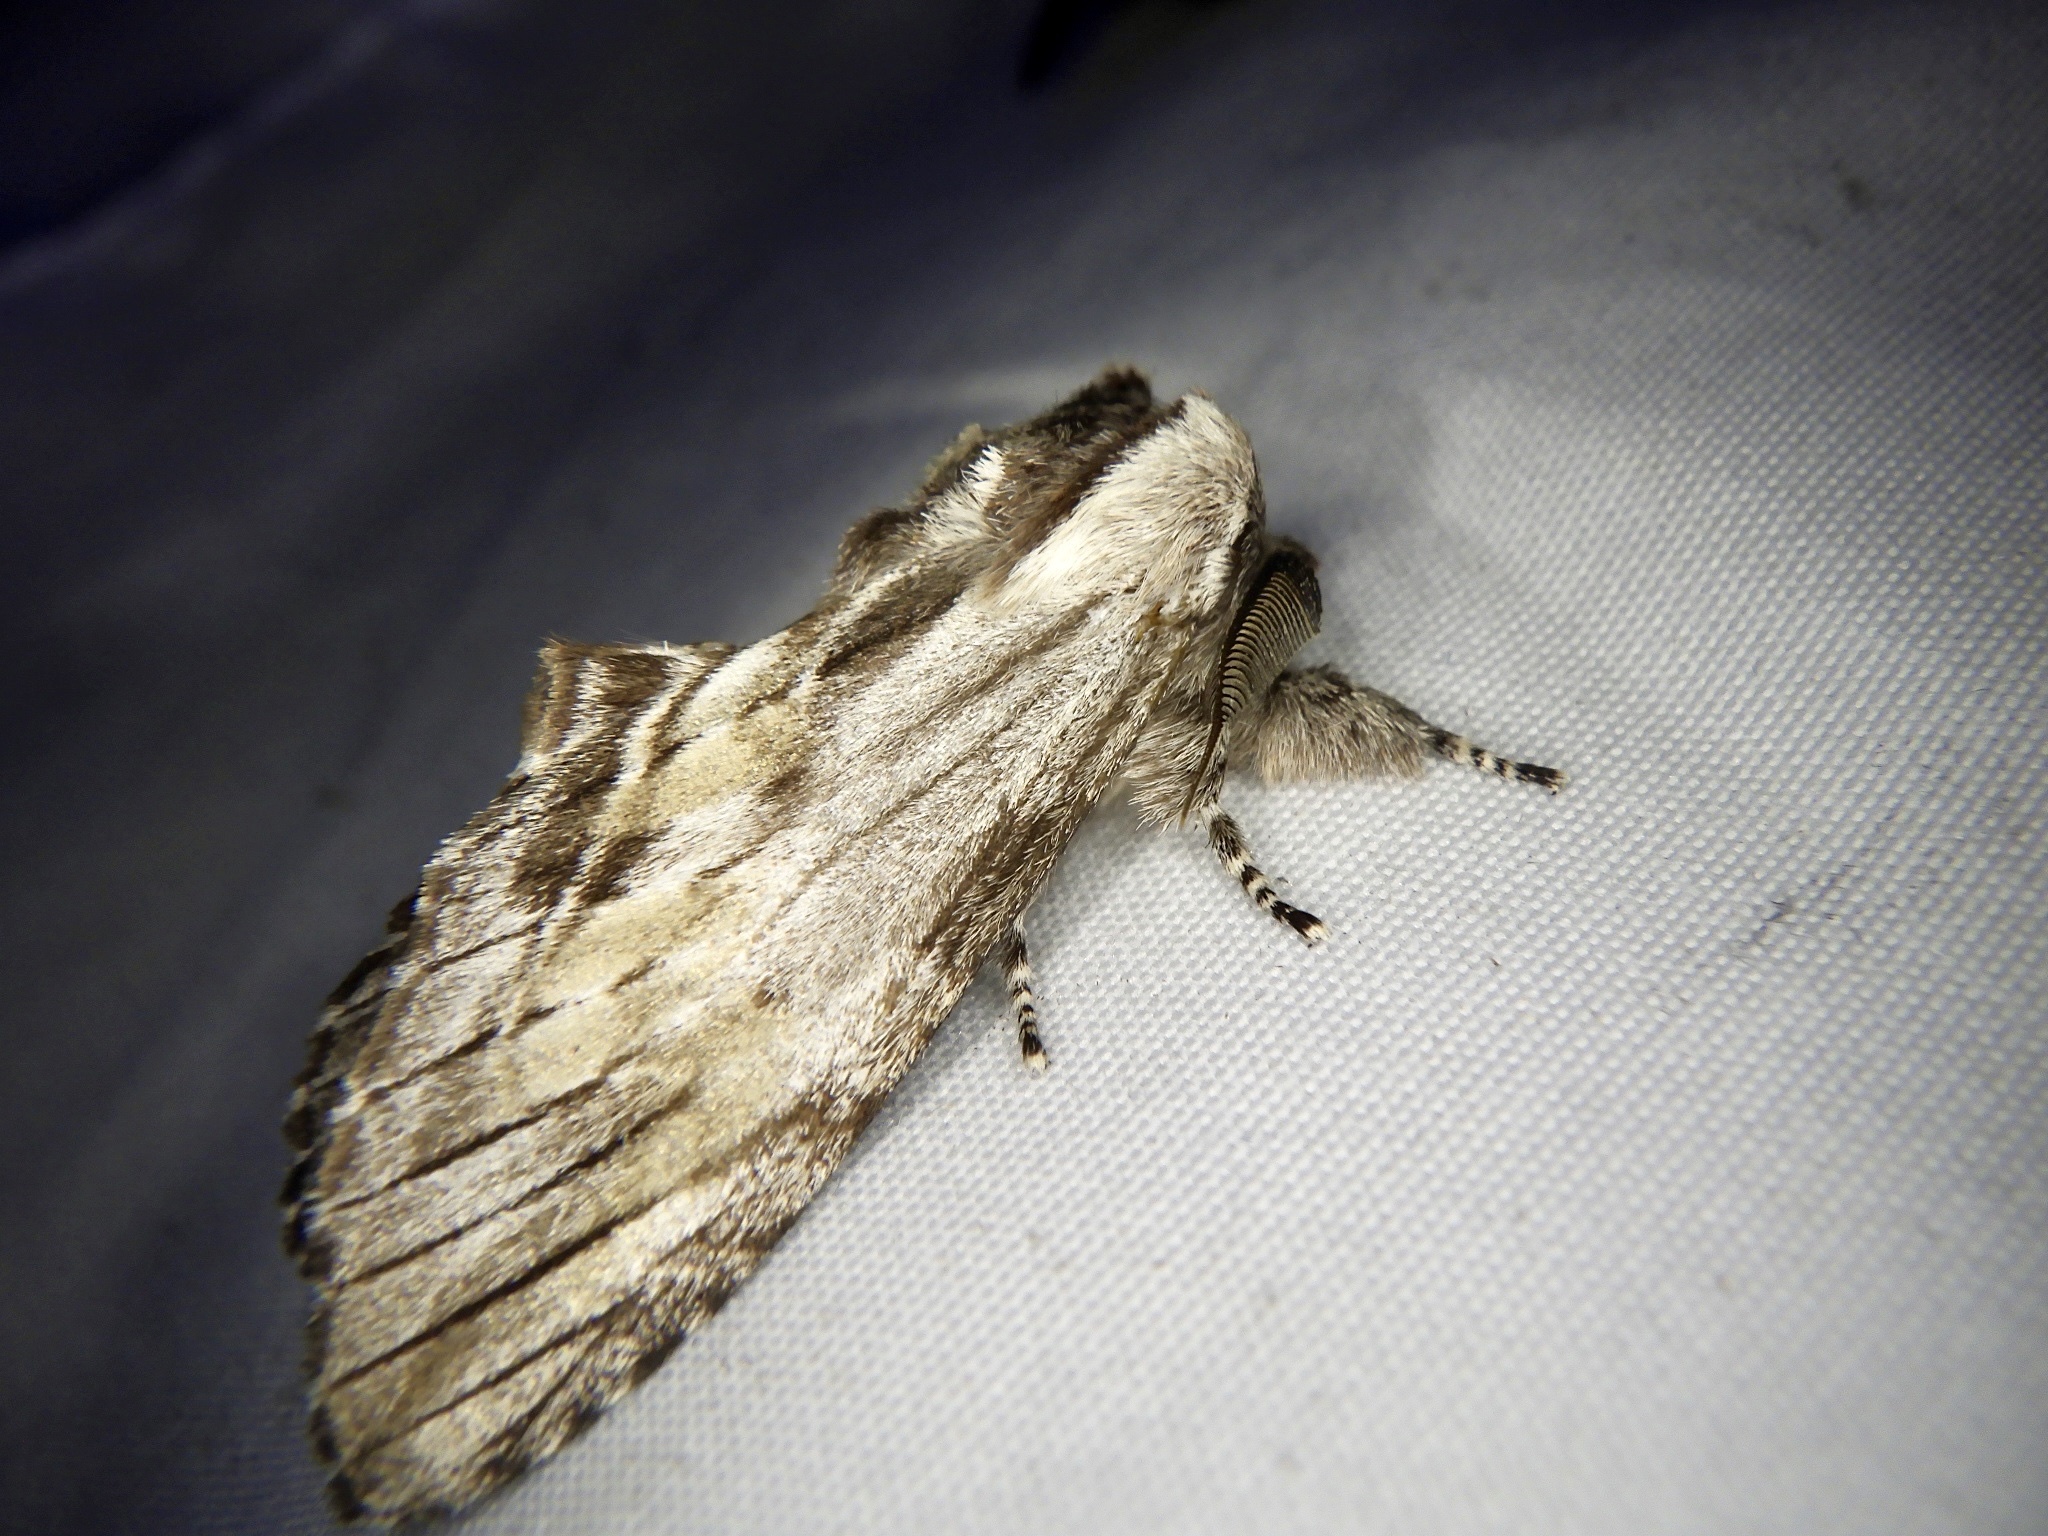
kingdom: Animalia
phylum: Arthropoda
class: Insecta
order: Lepidoptera
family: Notodontidae
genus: Harpyia
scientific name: Harpyia umbrosa
